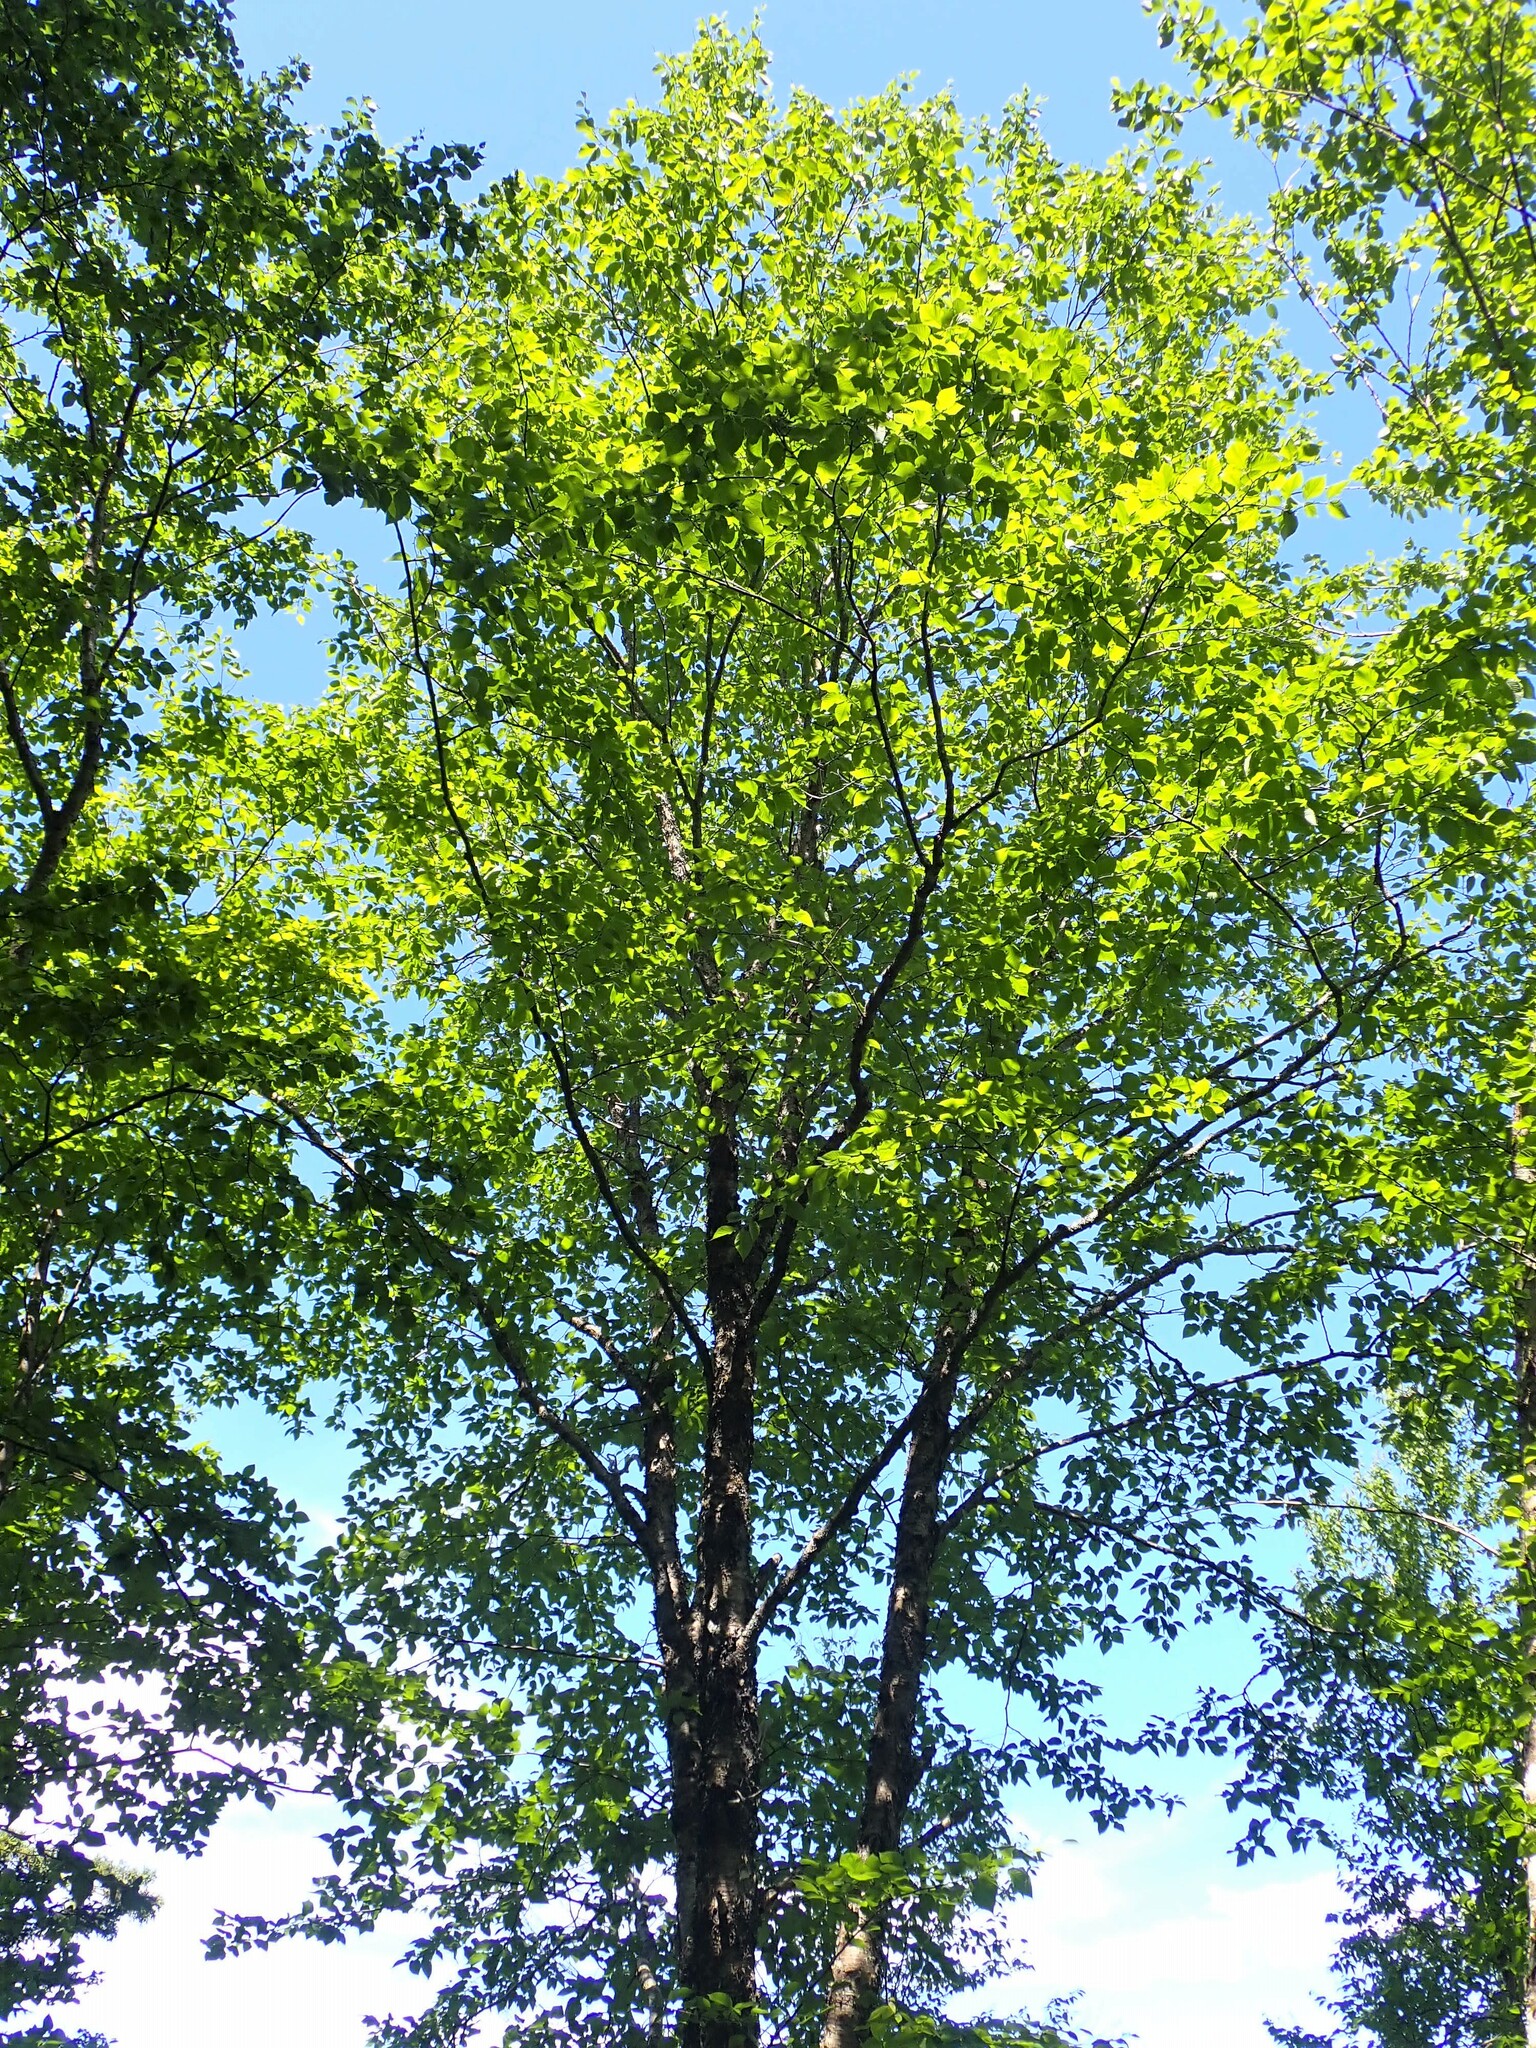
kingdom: Plantae
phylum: Tracheophyta
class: Magnoliopsida
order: Fagales
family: Betulaceae
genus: Betula
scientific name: Betula alleghaniensis
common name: Yellow birch
